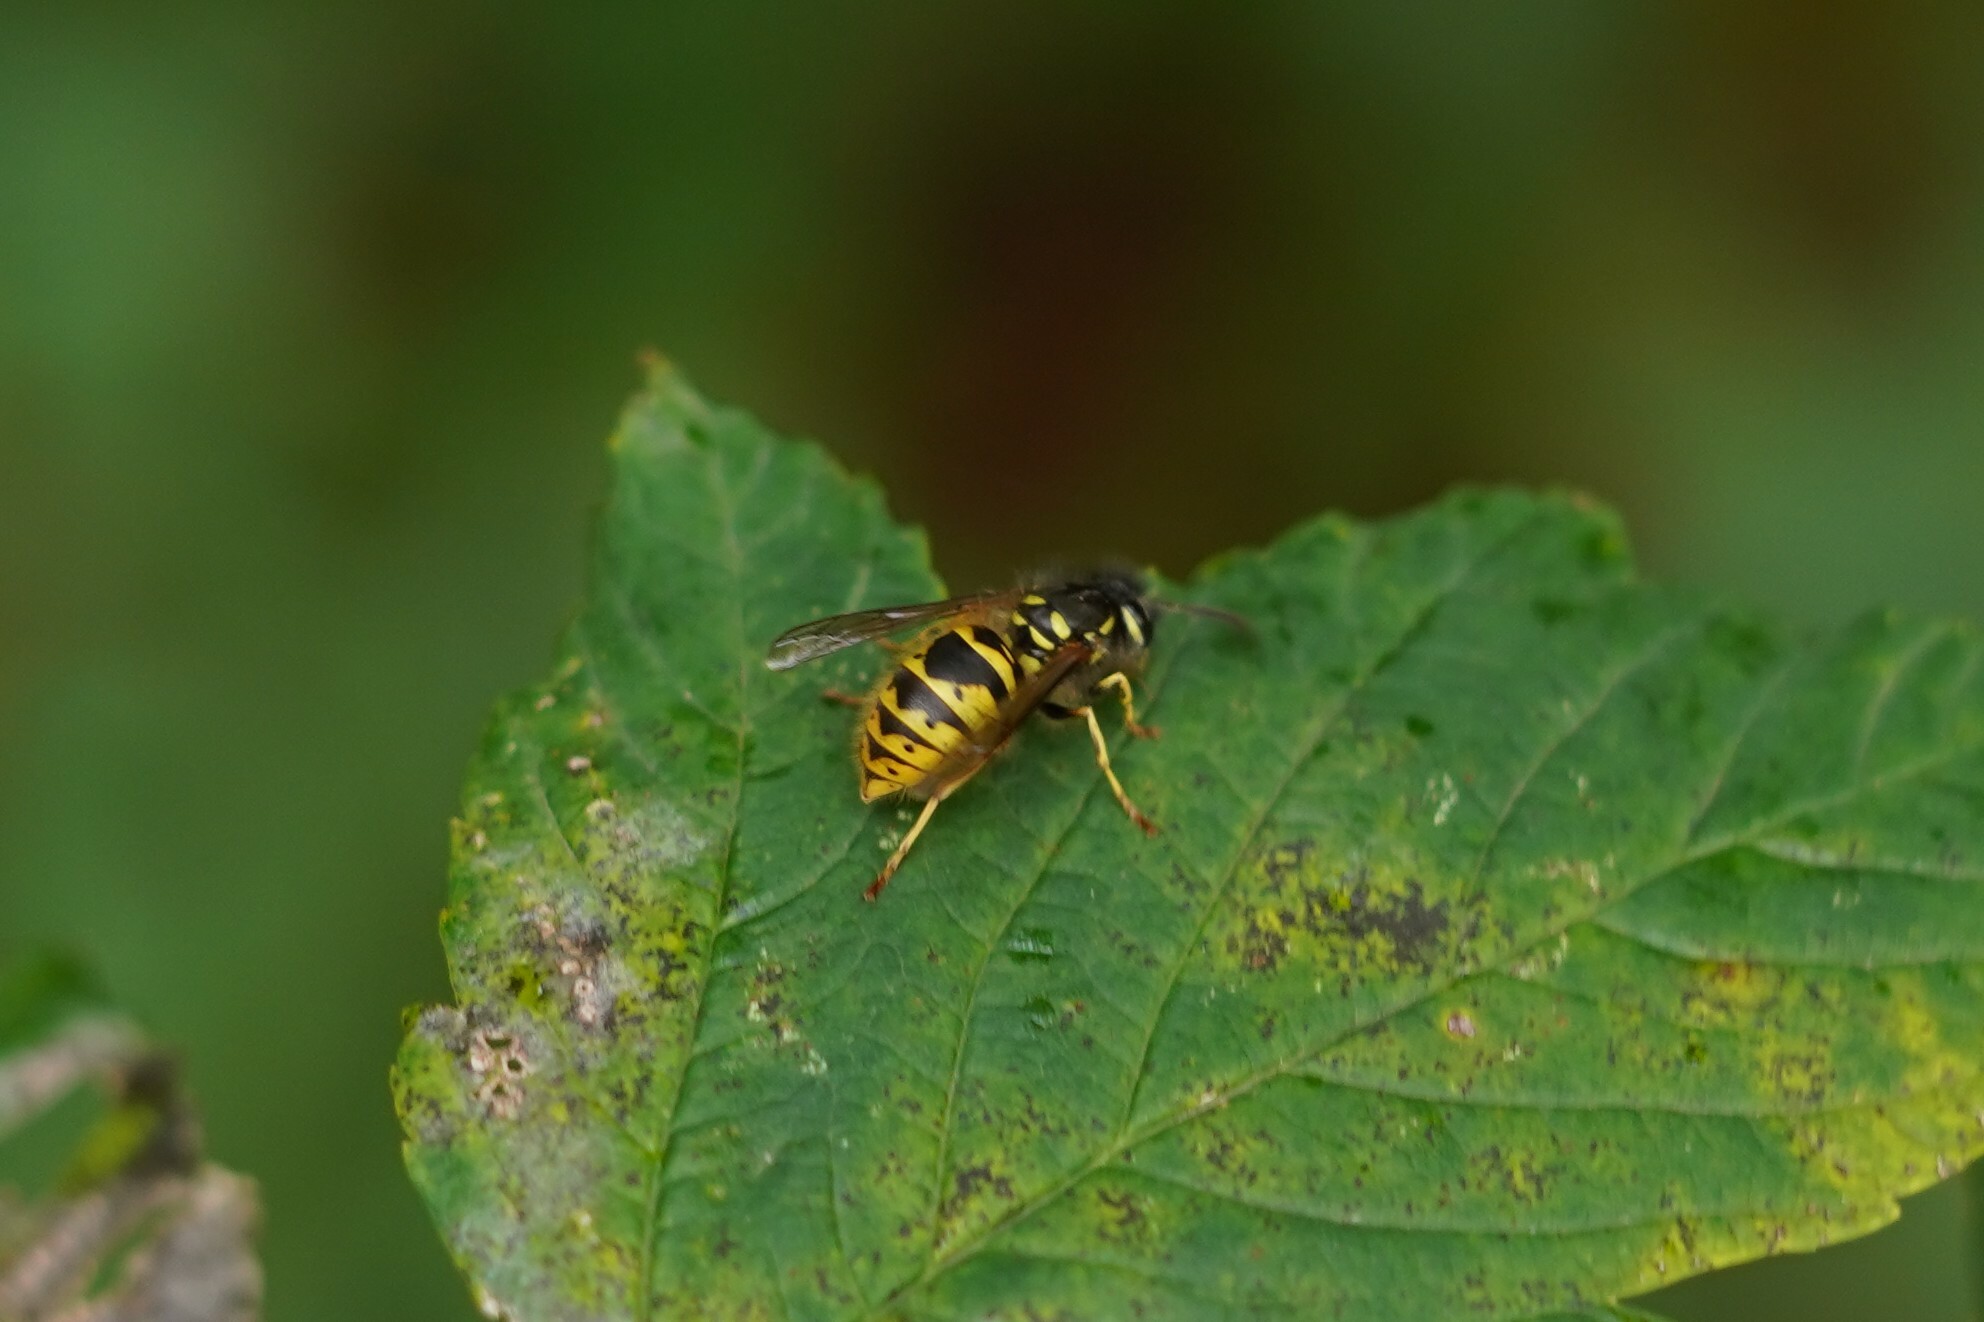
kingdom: Animalia
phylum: Arthropoda
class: Insecta
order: Hymenoptera
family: Vespidae
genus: Vespula
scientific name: Vespula vulgaris
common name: Common wasp
